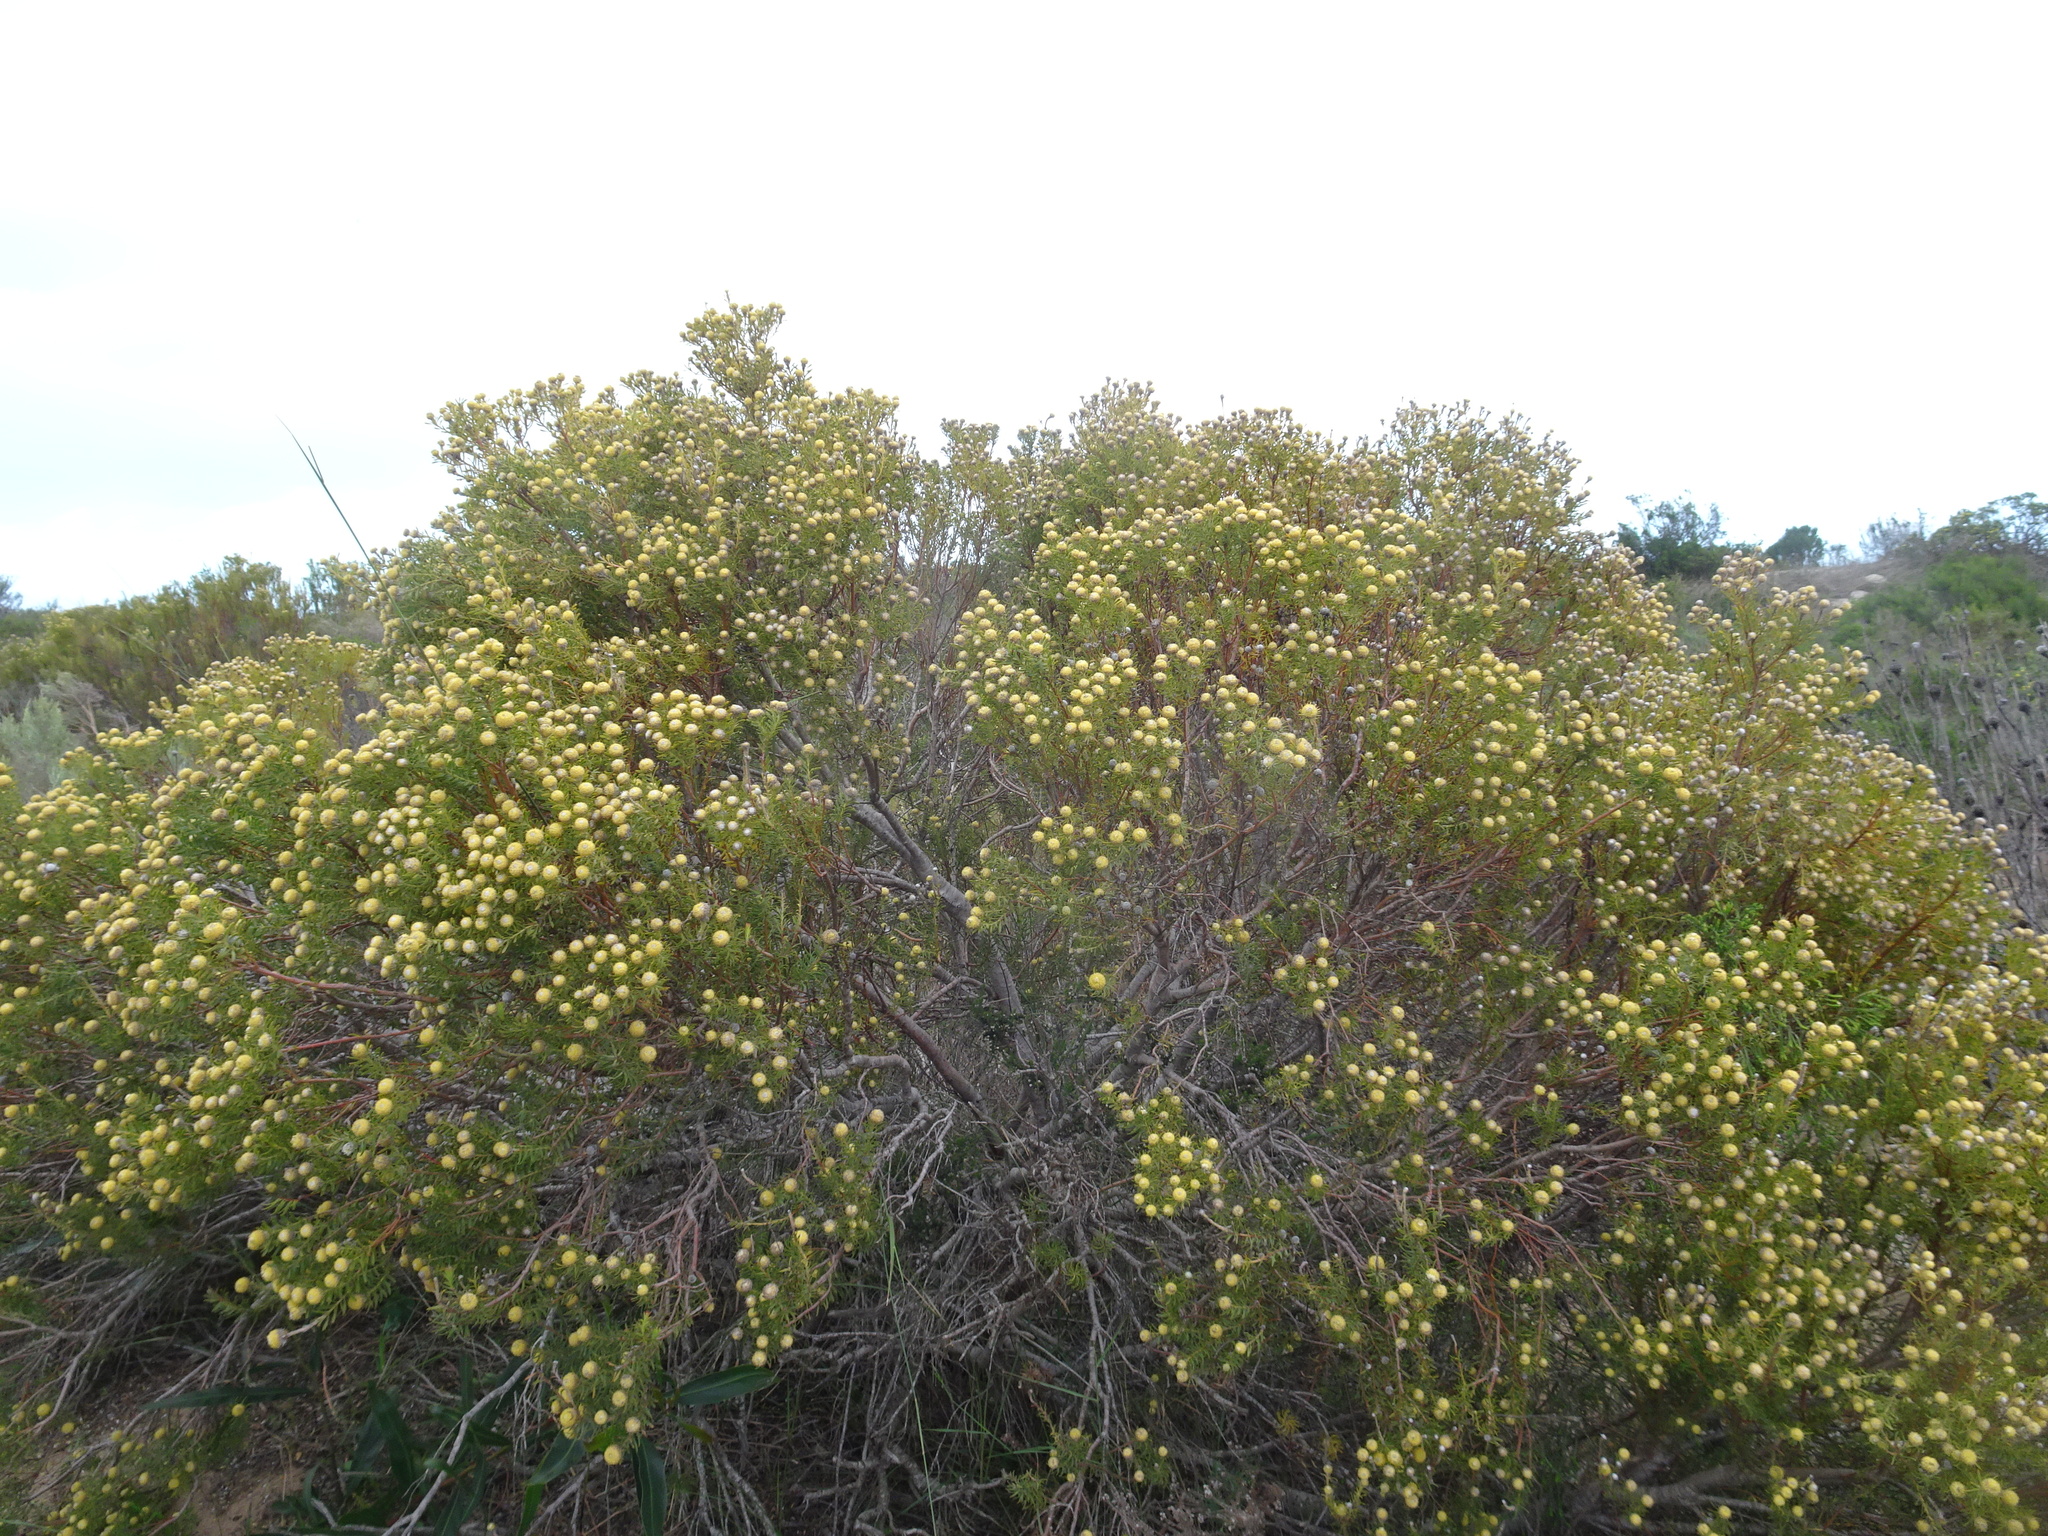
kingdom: Plantae
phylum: Tracheophyta
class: Magnoliopsida
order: Proteales
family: Proteaceae
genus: Leucadendron
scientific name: Leucadendron linifolium
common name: Line-leaf conebush
